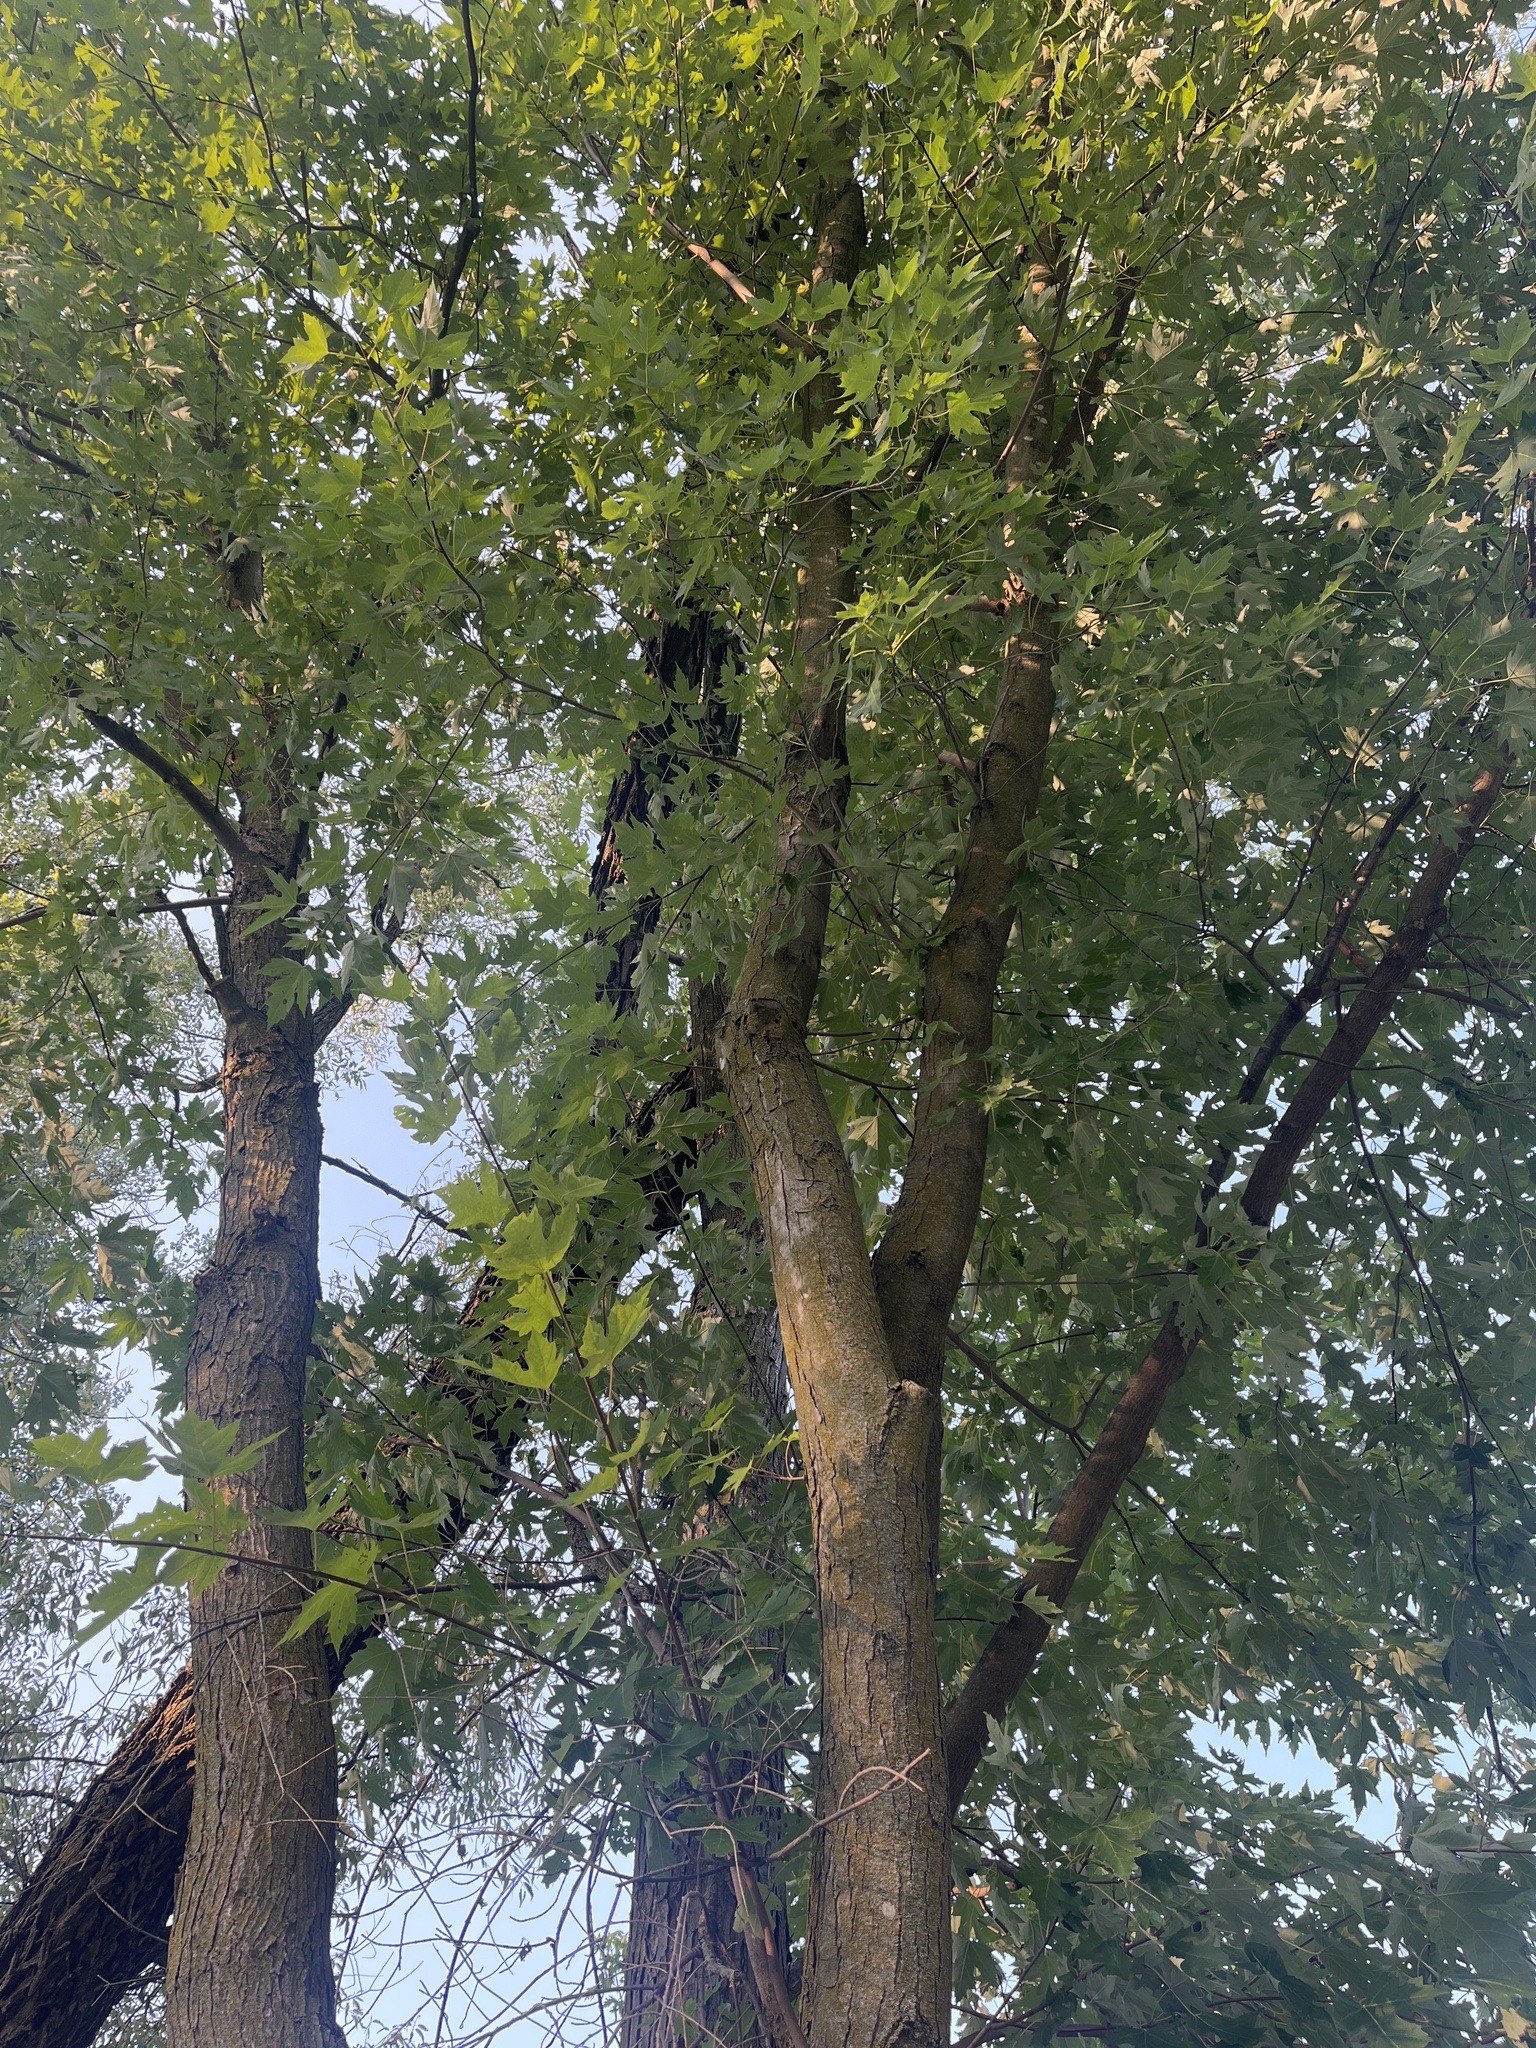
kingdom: Plantae
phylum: Tracheophyta
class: Magnoliopsida
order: Sapindales
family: Sapindaceae
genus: Acer
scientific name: Acer saccharinum
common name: Silver maple
